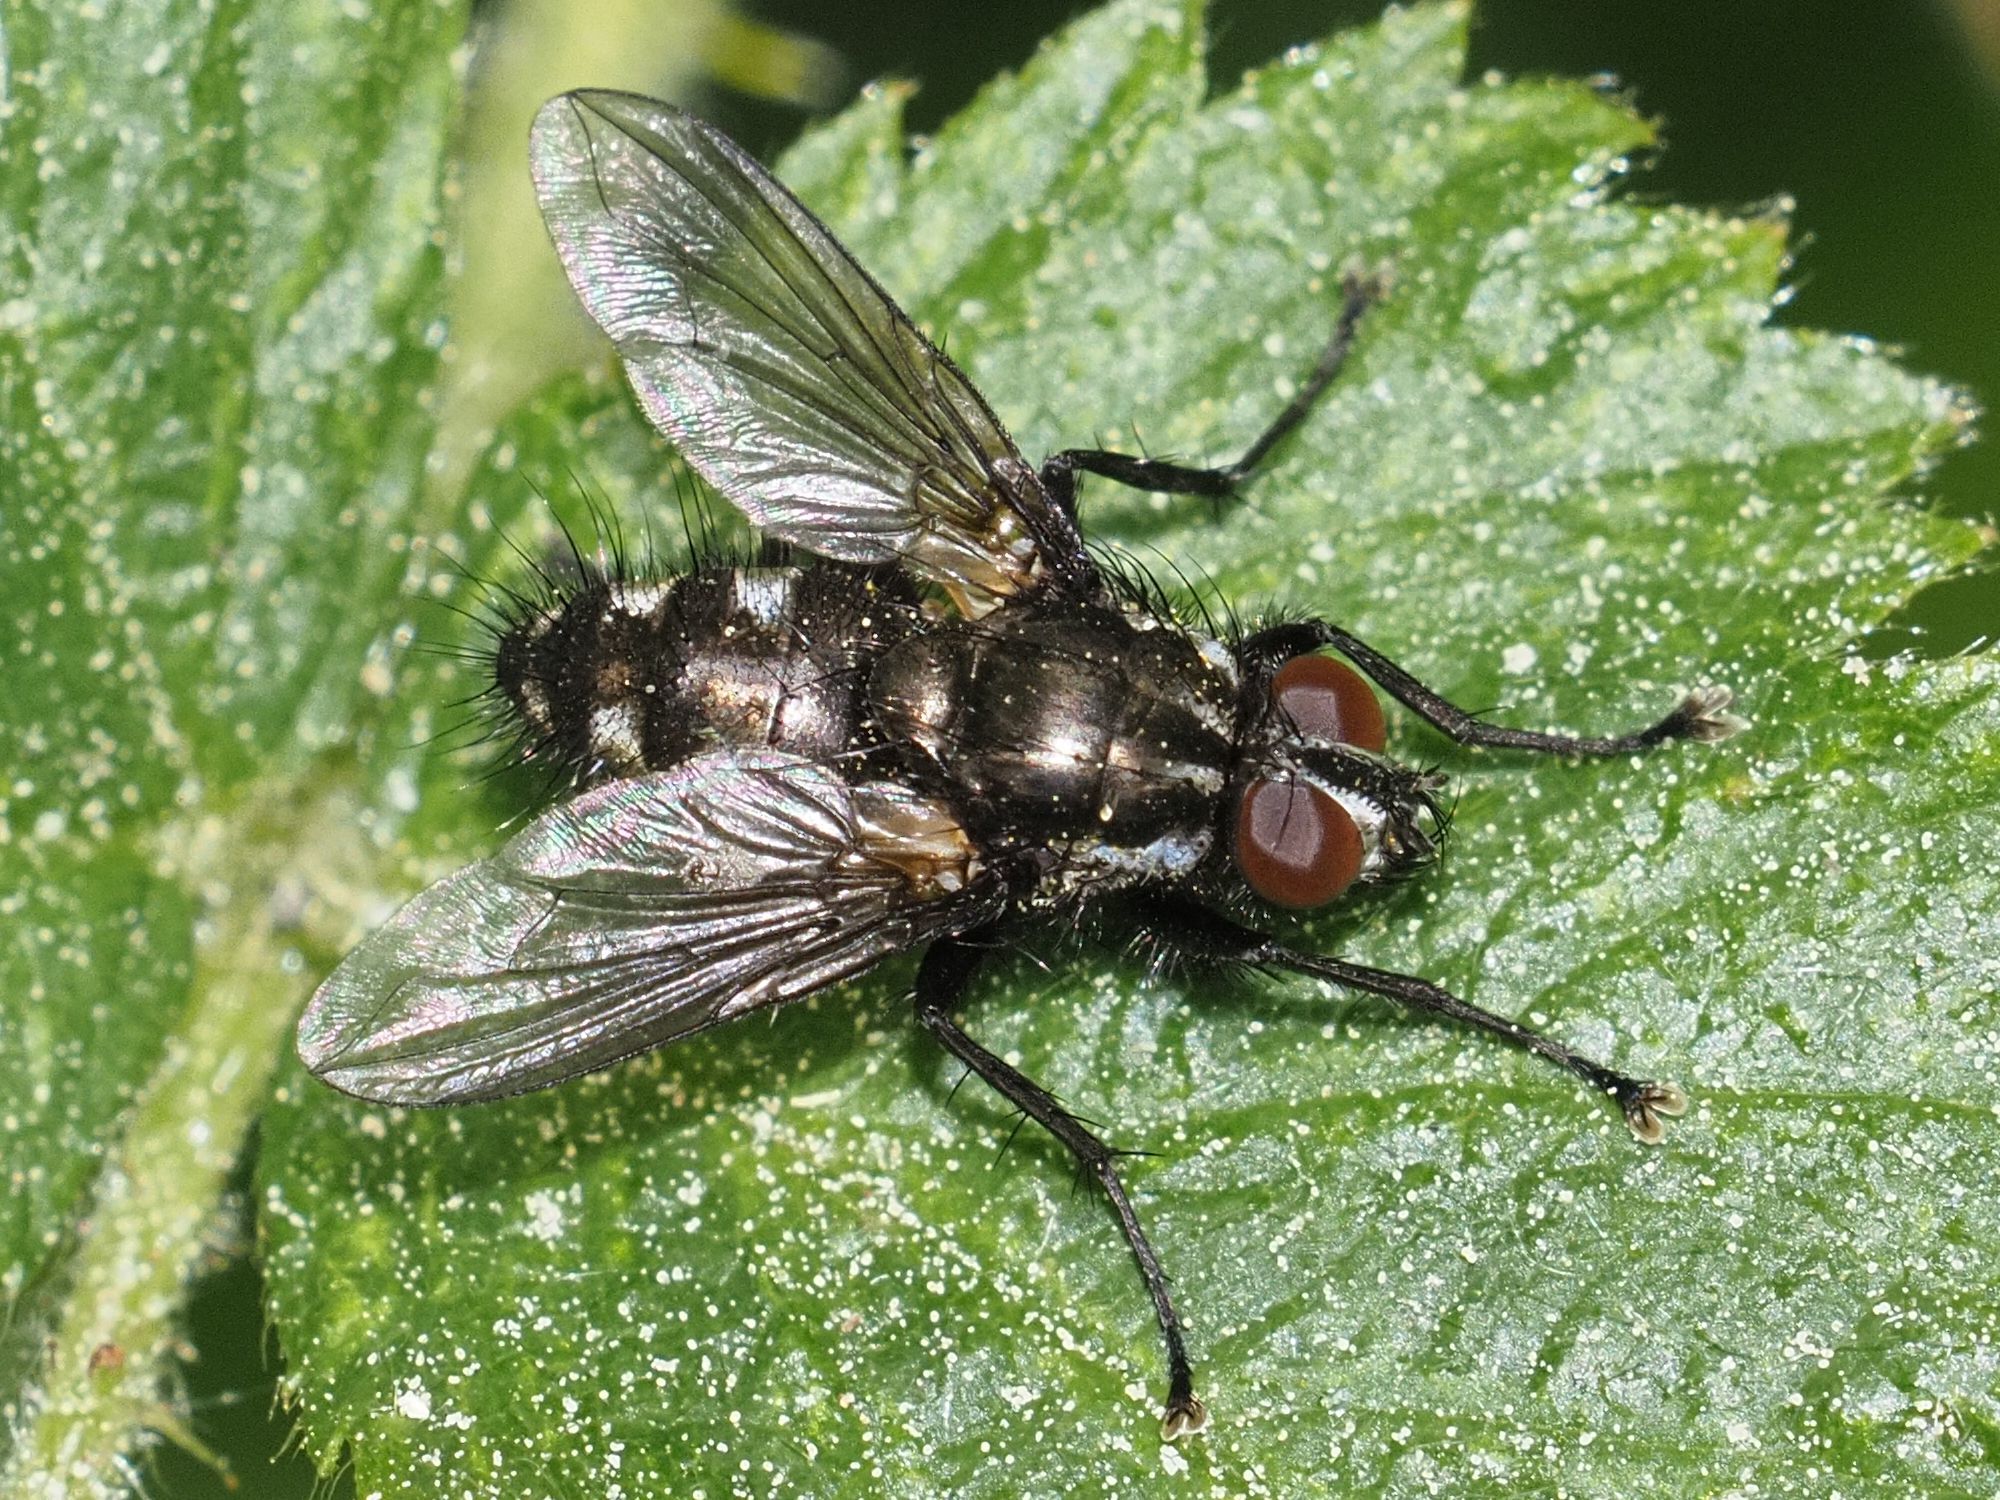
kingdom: Animalia
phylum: Arthropoda
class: Insecta
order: Diptera
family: Calliphoridae
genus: Rhinomorinia
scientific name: Rhinomorinia sarcophagina
